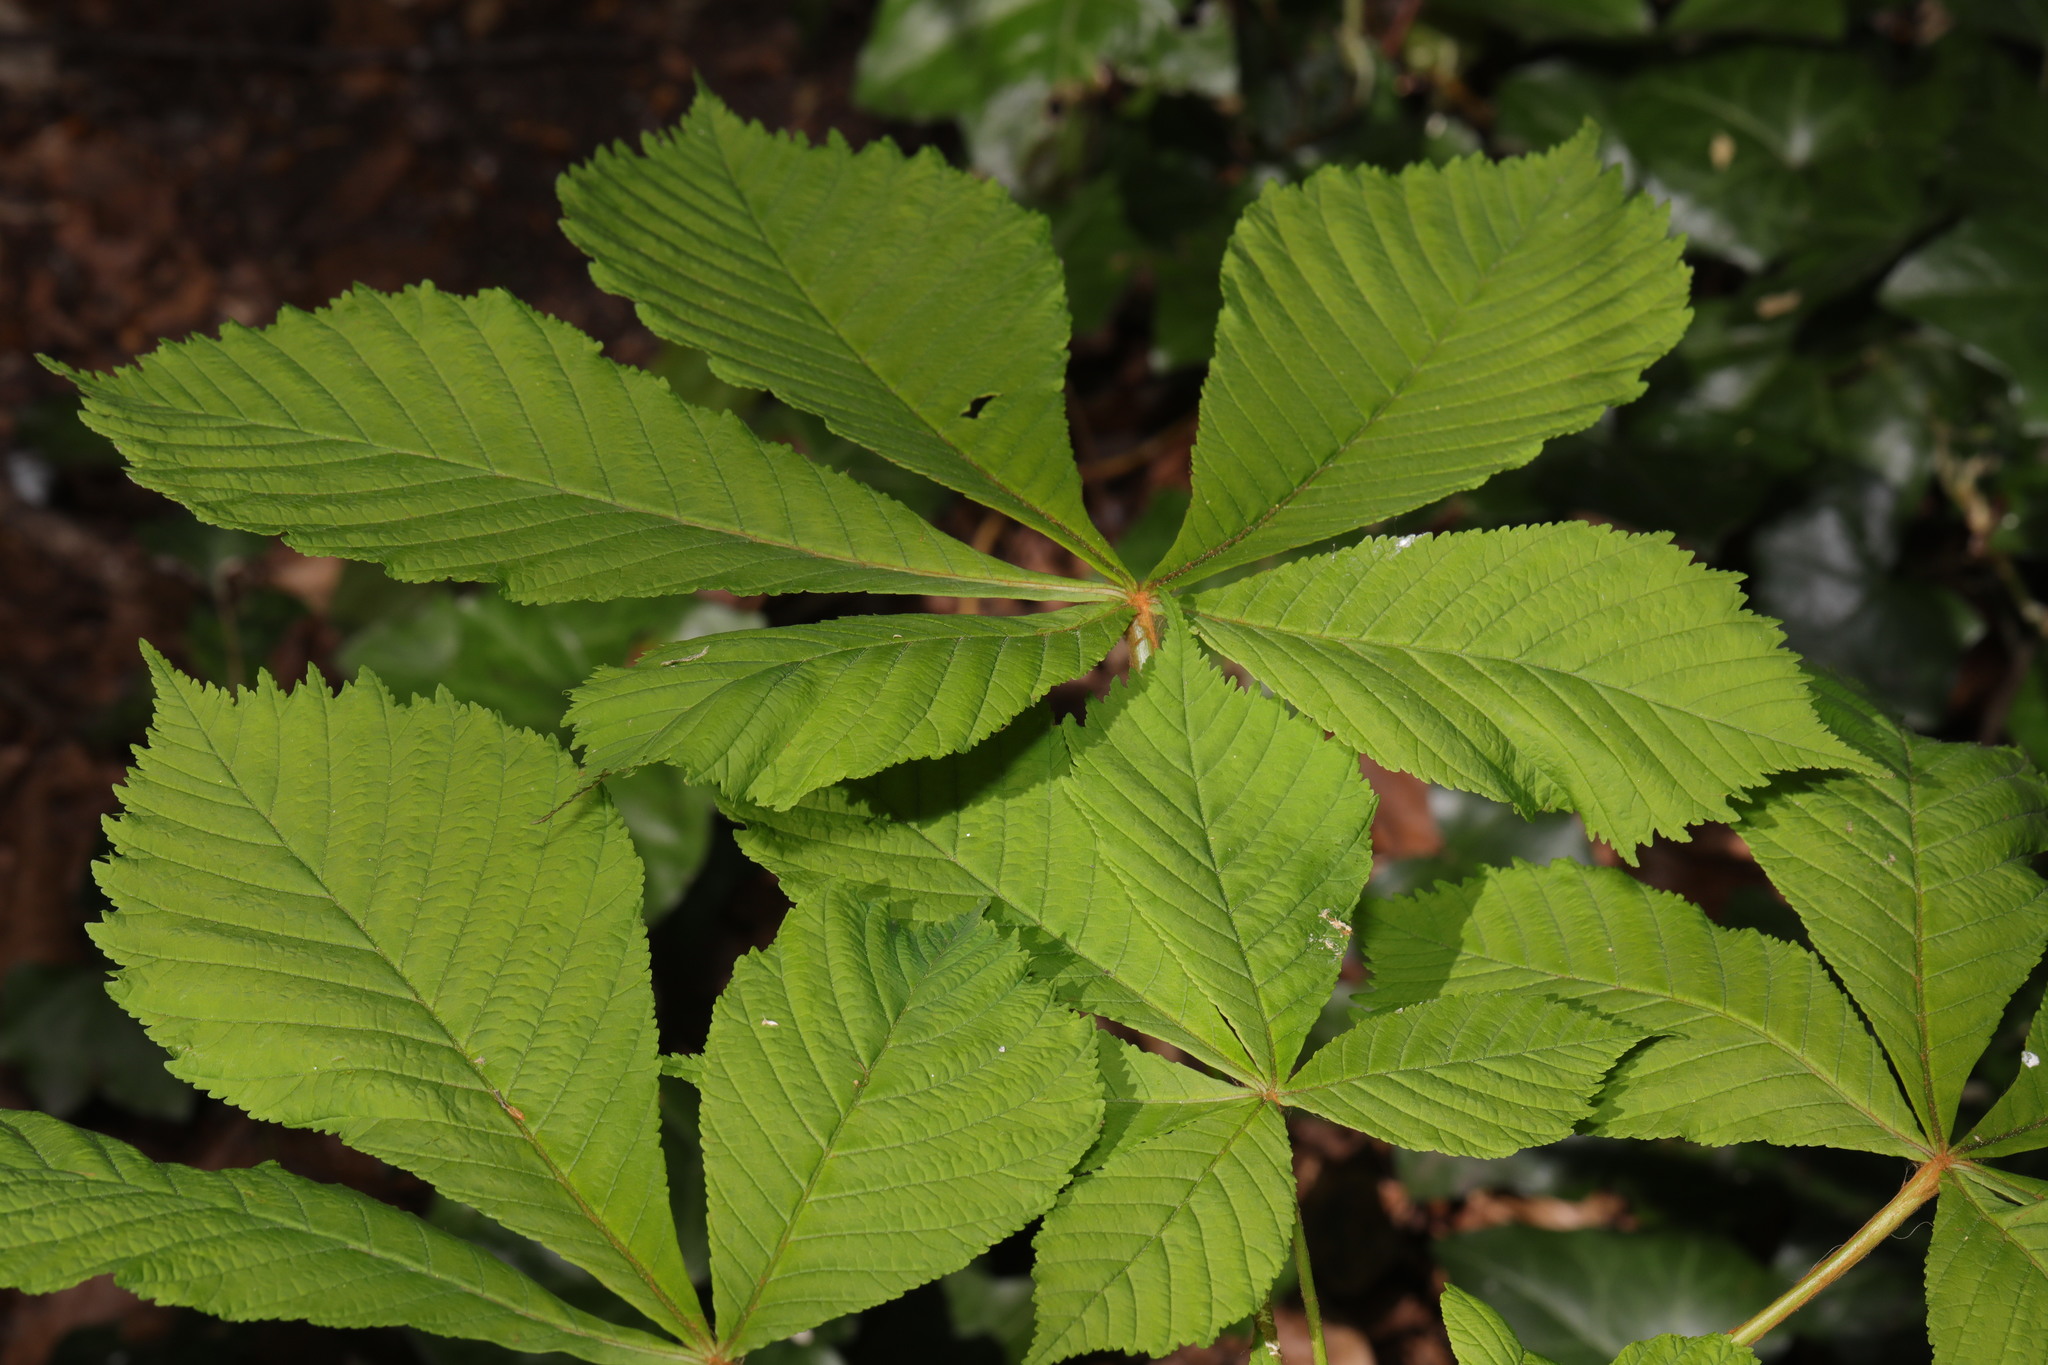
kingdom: Plantae
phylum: Tracheophyta
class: Magnoliopsida
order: Sapindales
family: Sapindaceae
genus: Aesculus
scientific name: Aesculus hippocastanum
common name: Horse-chestnut
